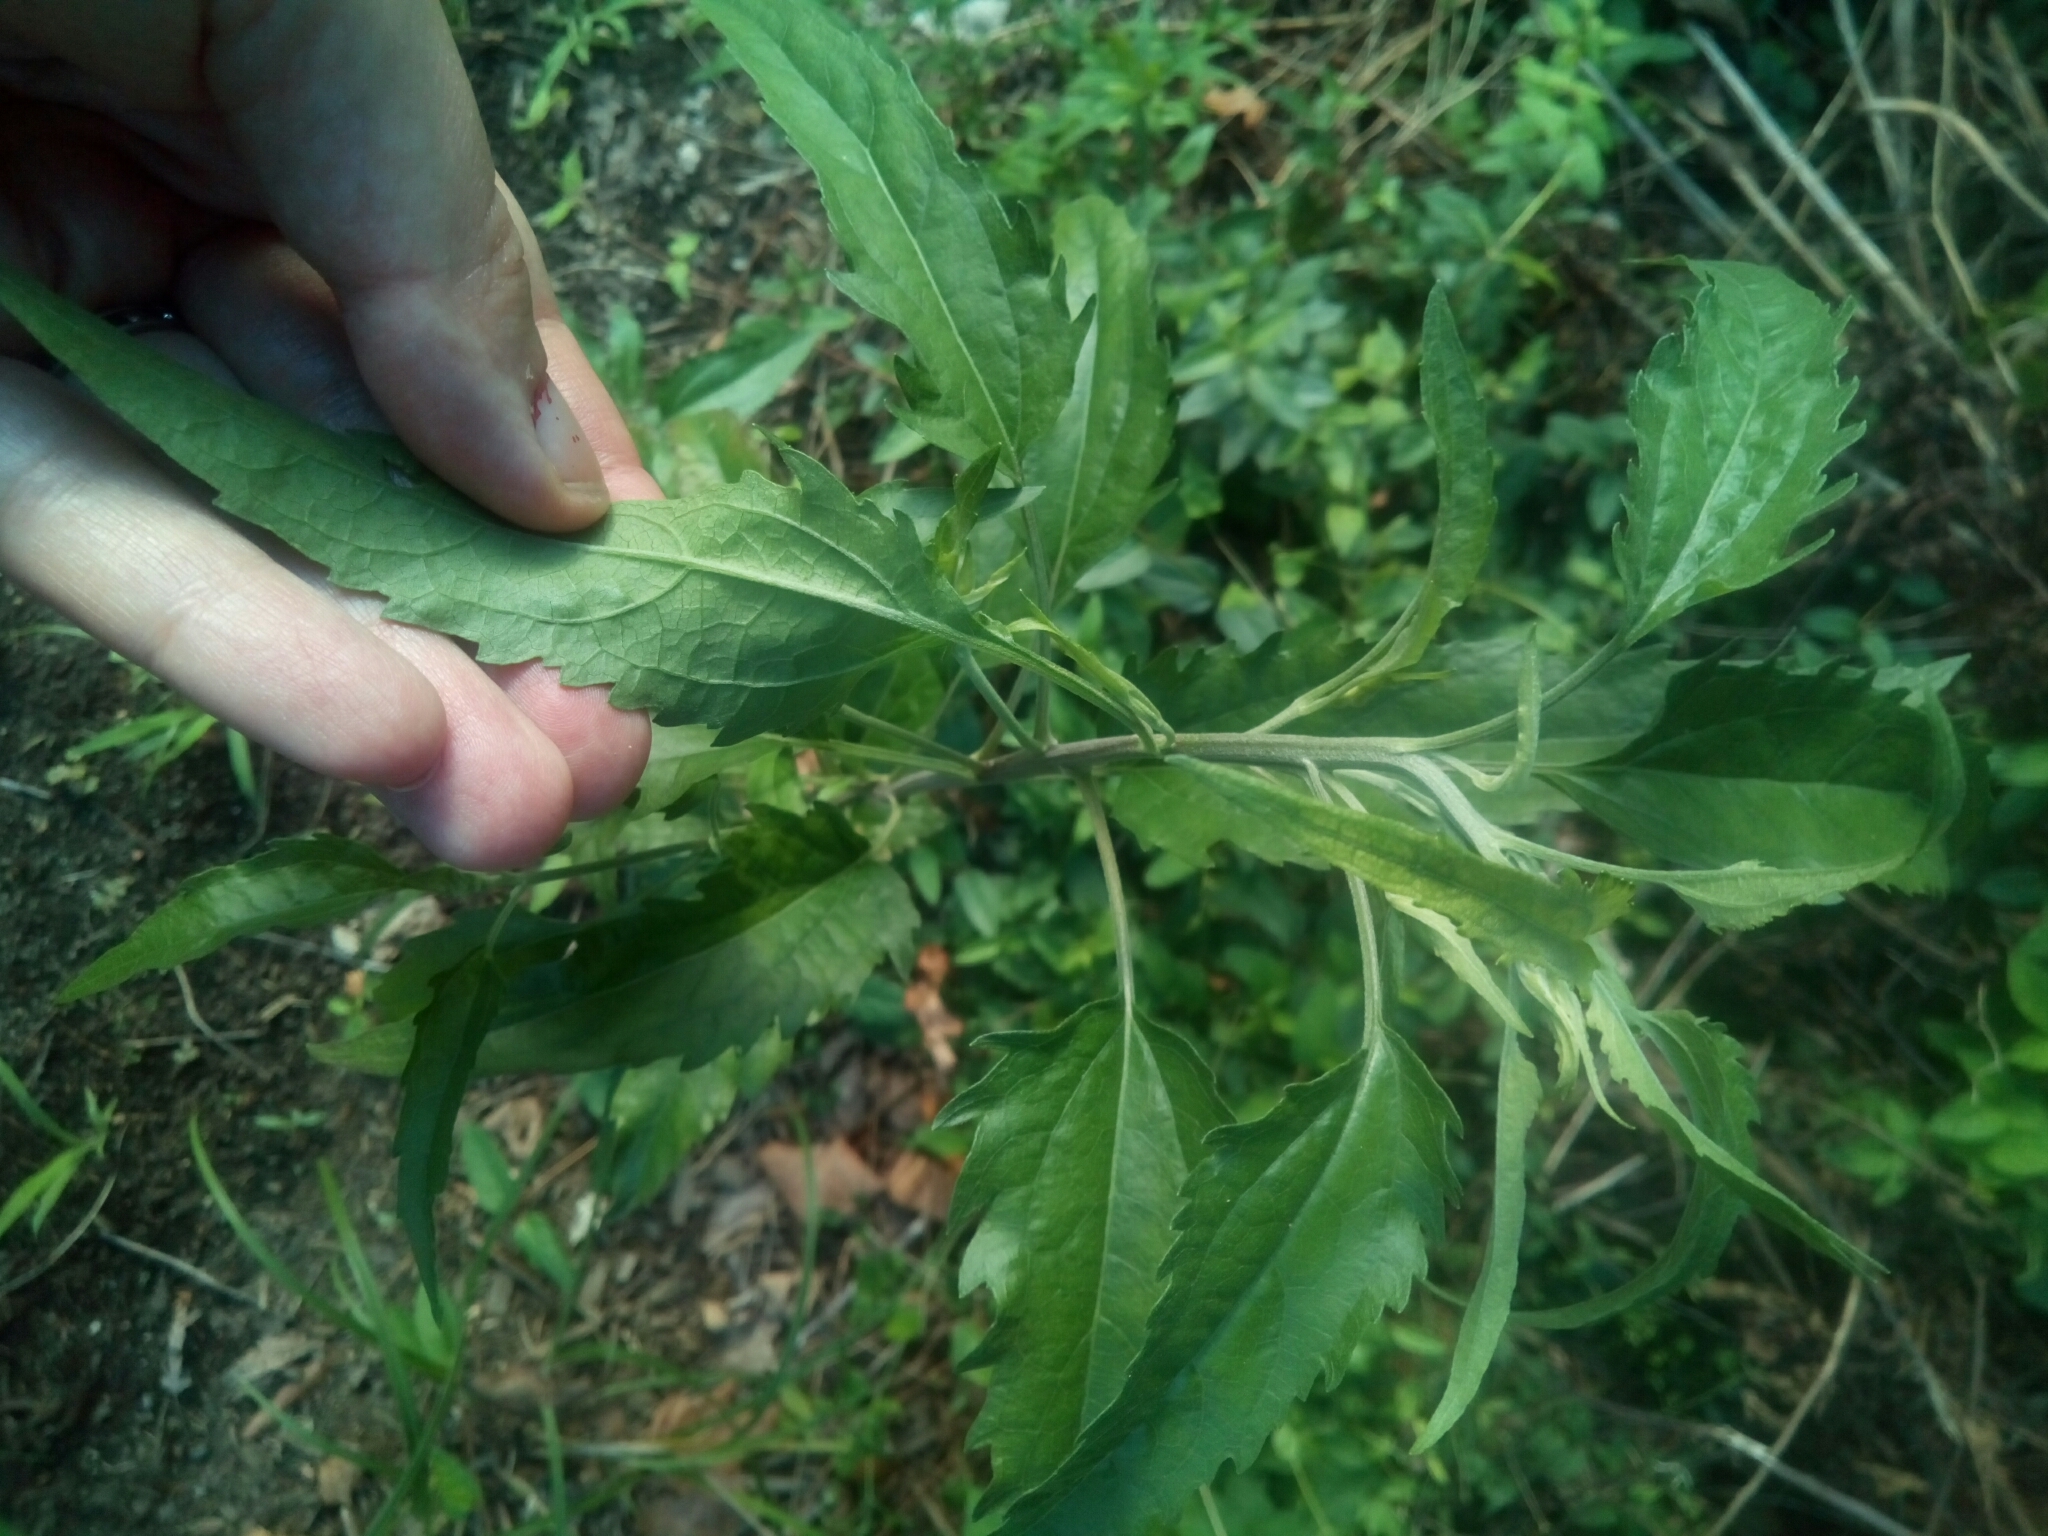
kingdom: Plantae
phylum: Tracheophyta
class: Magnoliopsida
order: Asterales
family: Asteraceae
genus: Eupatorium
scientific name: Eupatorium serotinum
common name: Late boneset
